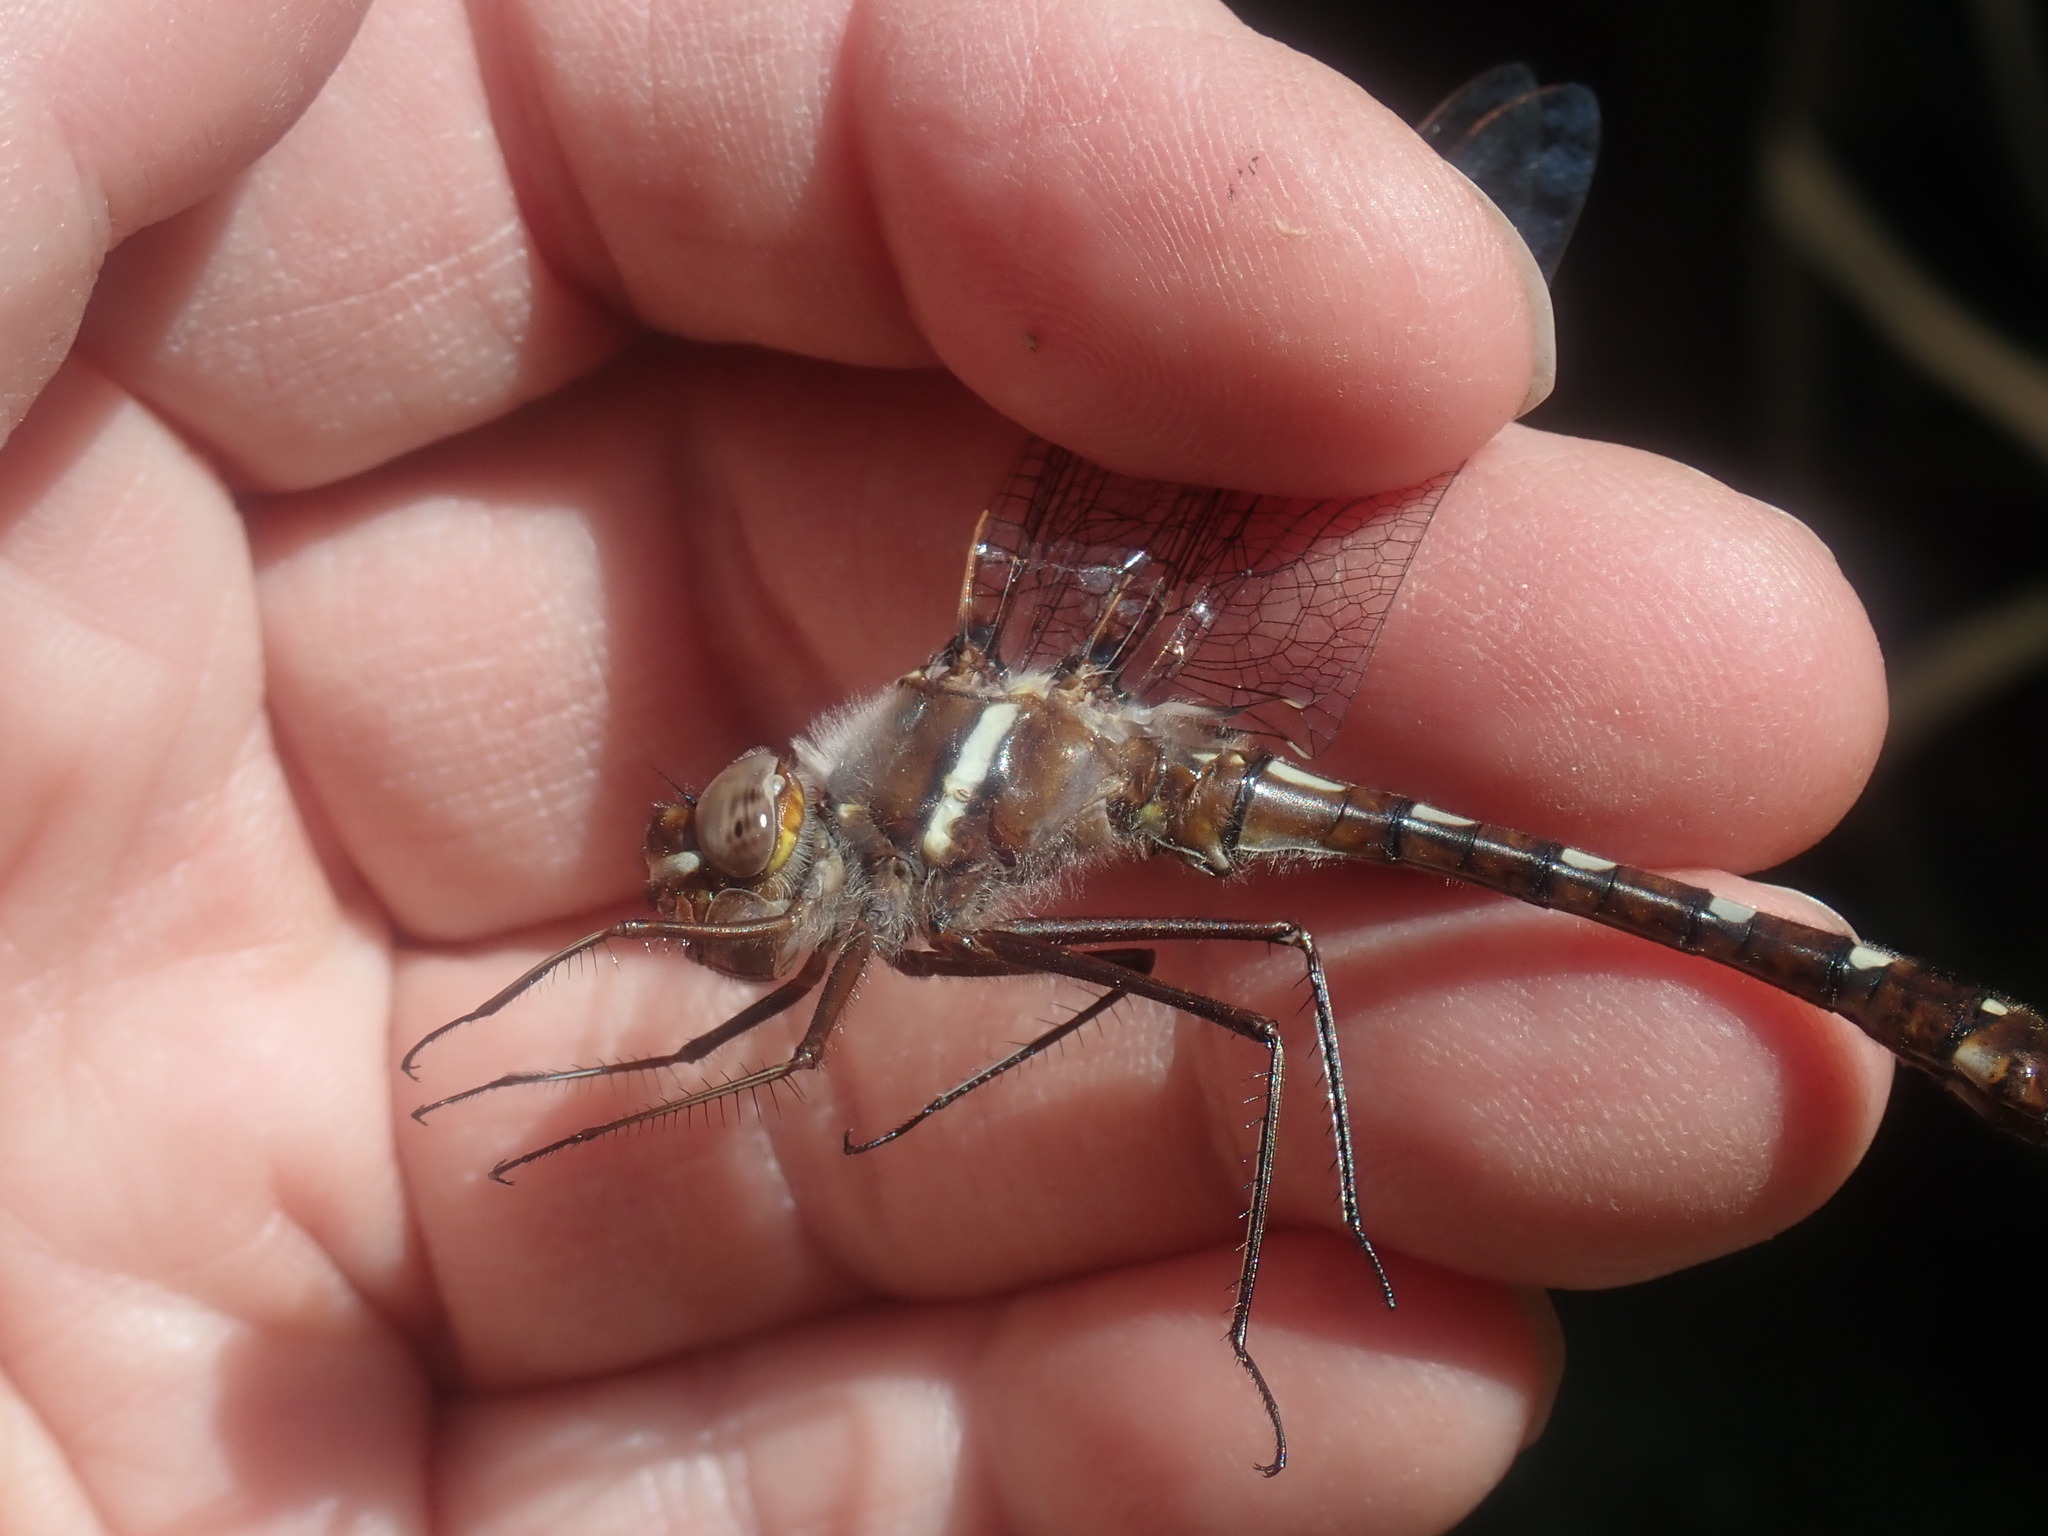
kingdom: Animalia
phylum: Arthropoda
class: Insecta
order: Odonata
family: Macromiidae
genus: Didymops
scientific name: Didymops transversa
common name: Stream cruiser
